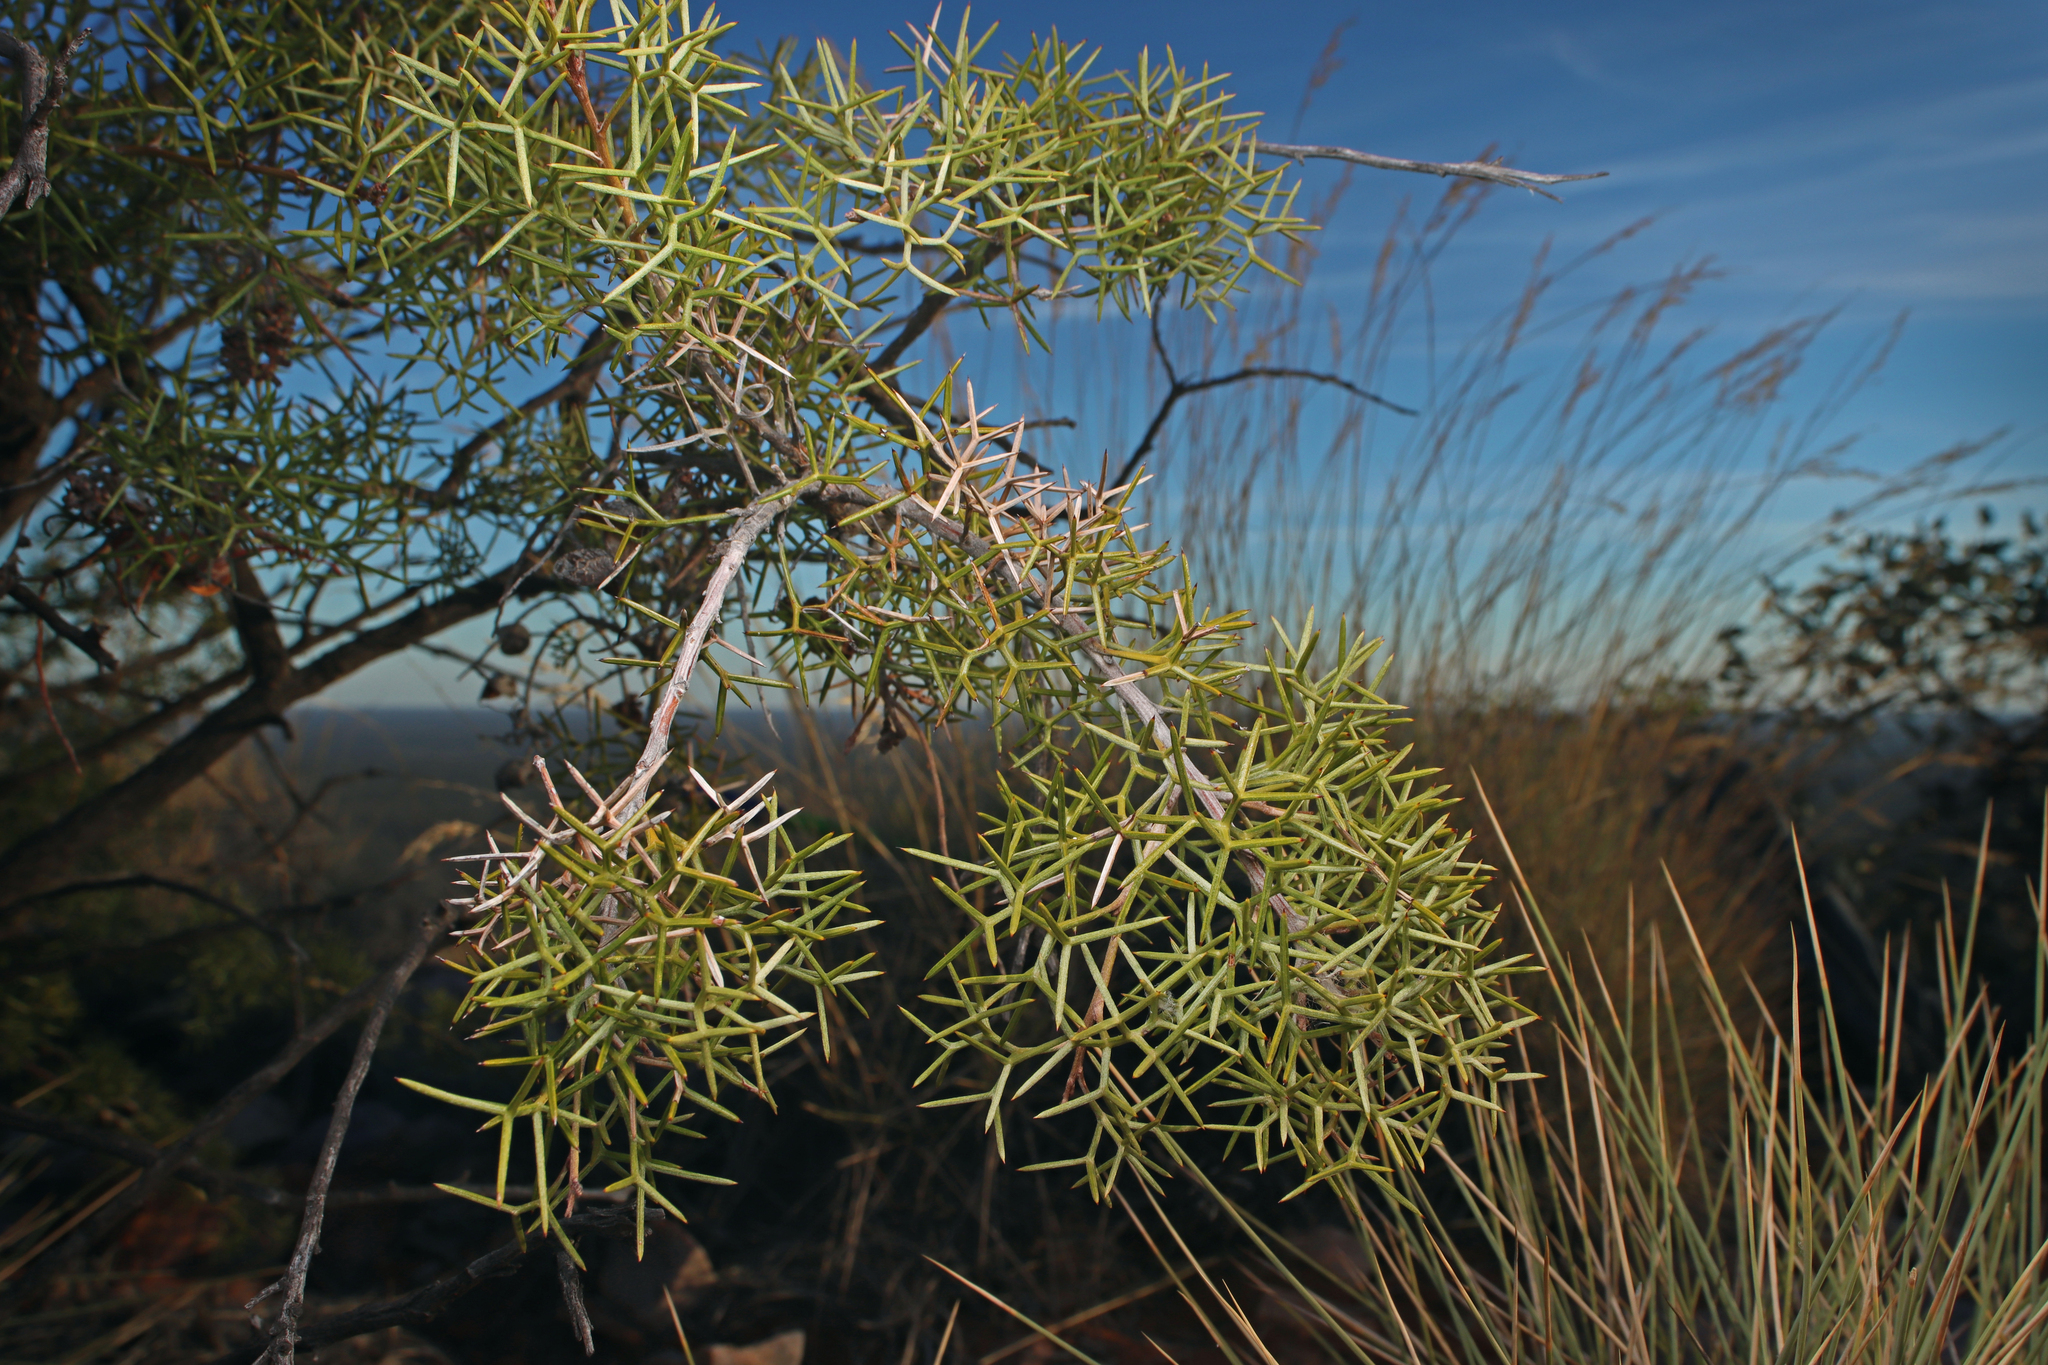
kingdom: Plantae
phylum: Tracheophyta
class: Magnoliopsida
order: Proteales
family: Proteaceae
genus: Grevillea
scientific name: Grevillea treueriana
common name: Mt finke grevillea
